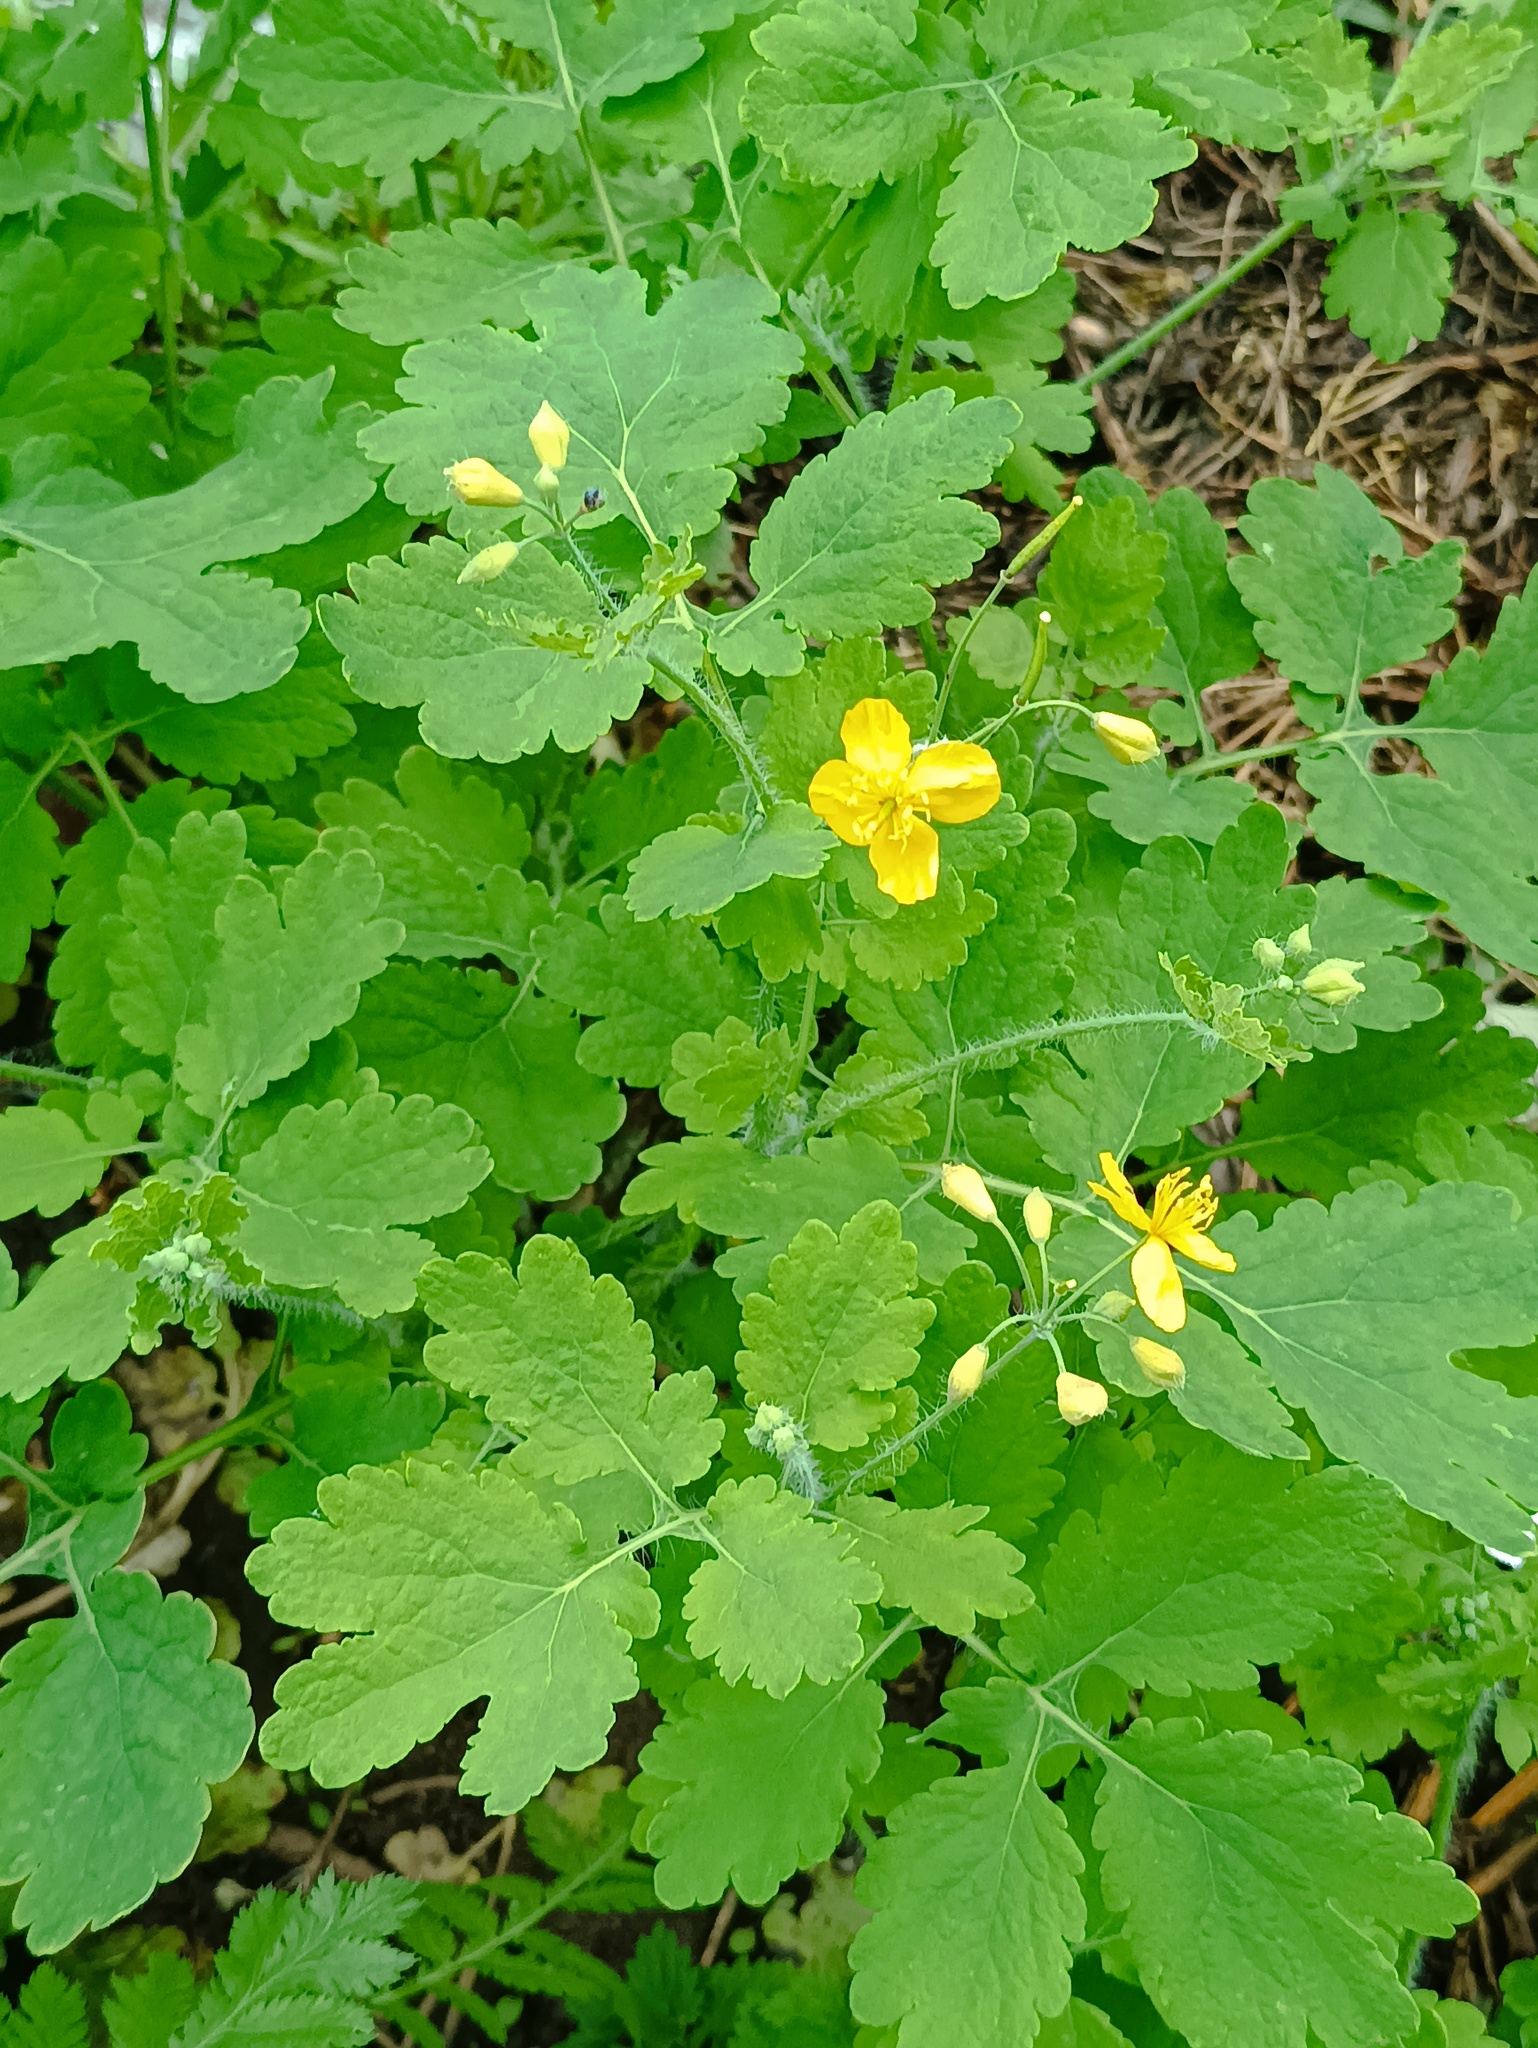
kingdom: Plantae
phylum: Tracheophyta
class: Magnoliopsida
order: Ranunculales
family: Papaveraceae
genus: Chelidonium
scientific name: Chelidonium majus
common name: Greater celandine
